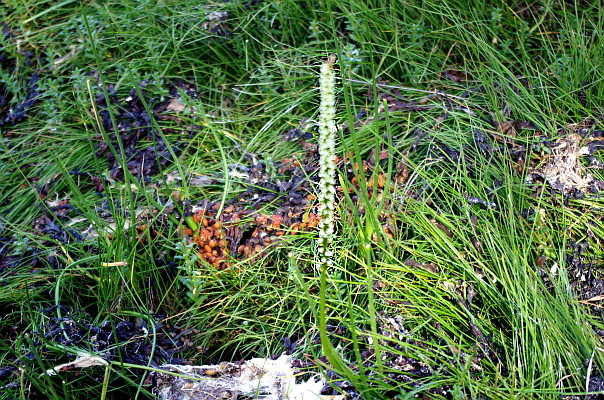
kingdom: Plantae
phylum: Tracheophyta
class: Liliopsida
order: Alismatales
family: Juncaginaceae
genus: Triglochin
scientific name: Triglochin maritima
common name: Sea arrowgrass
